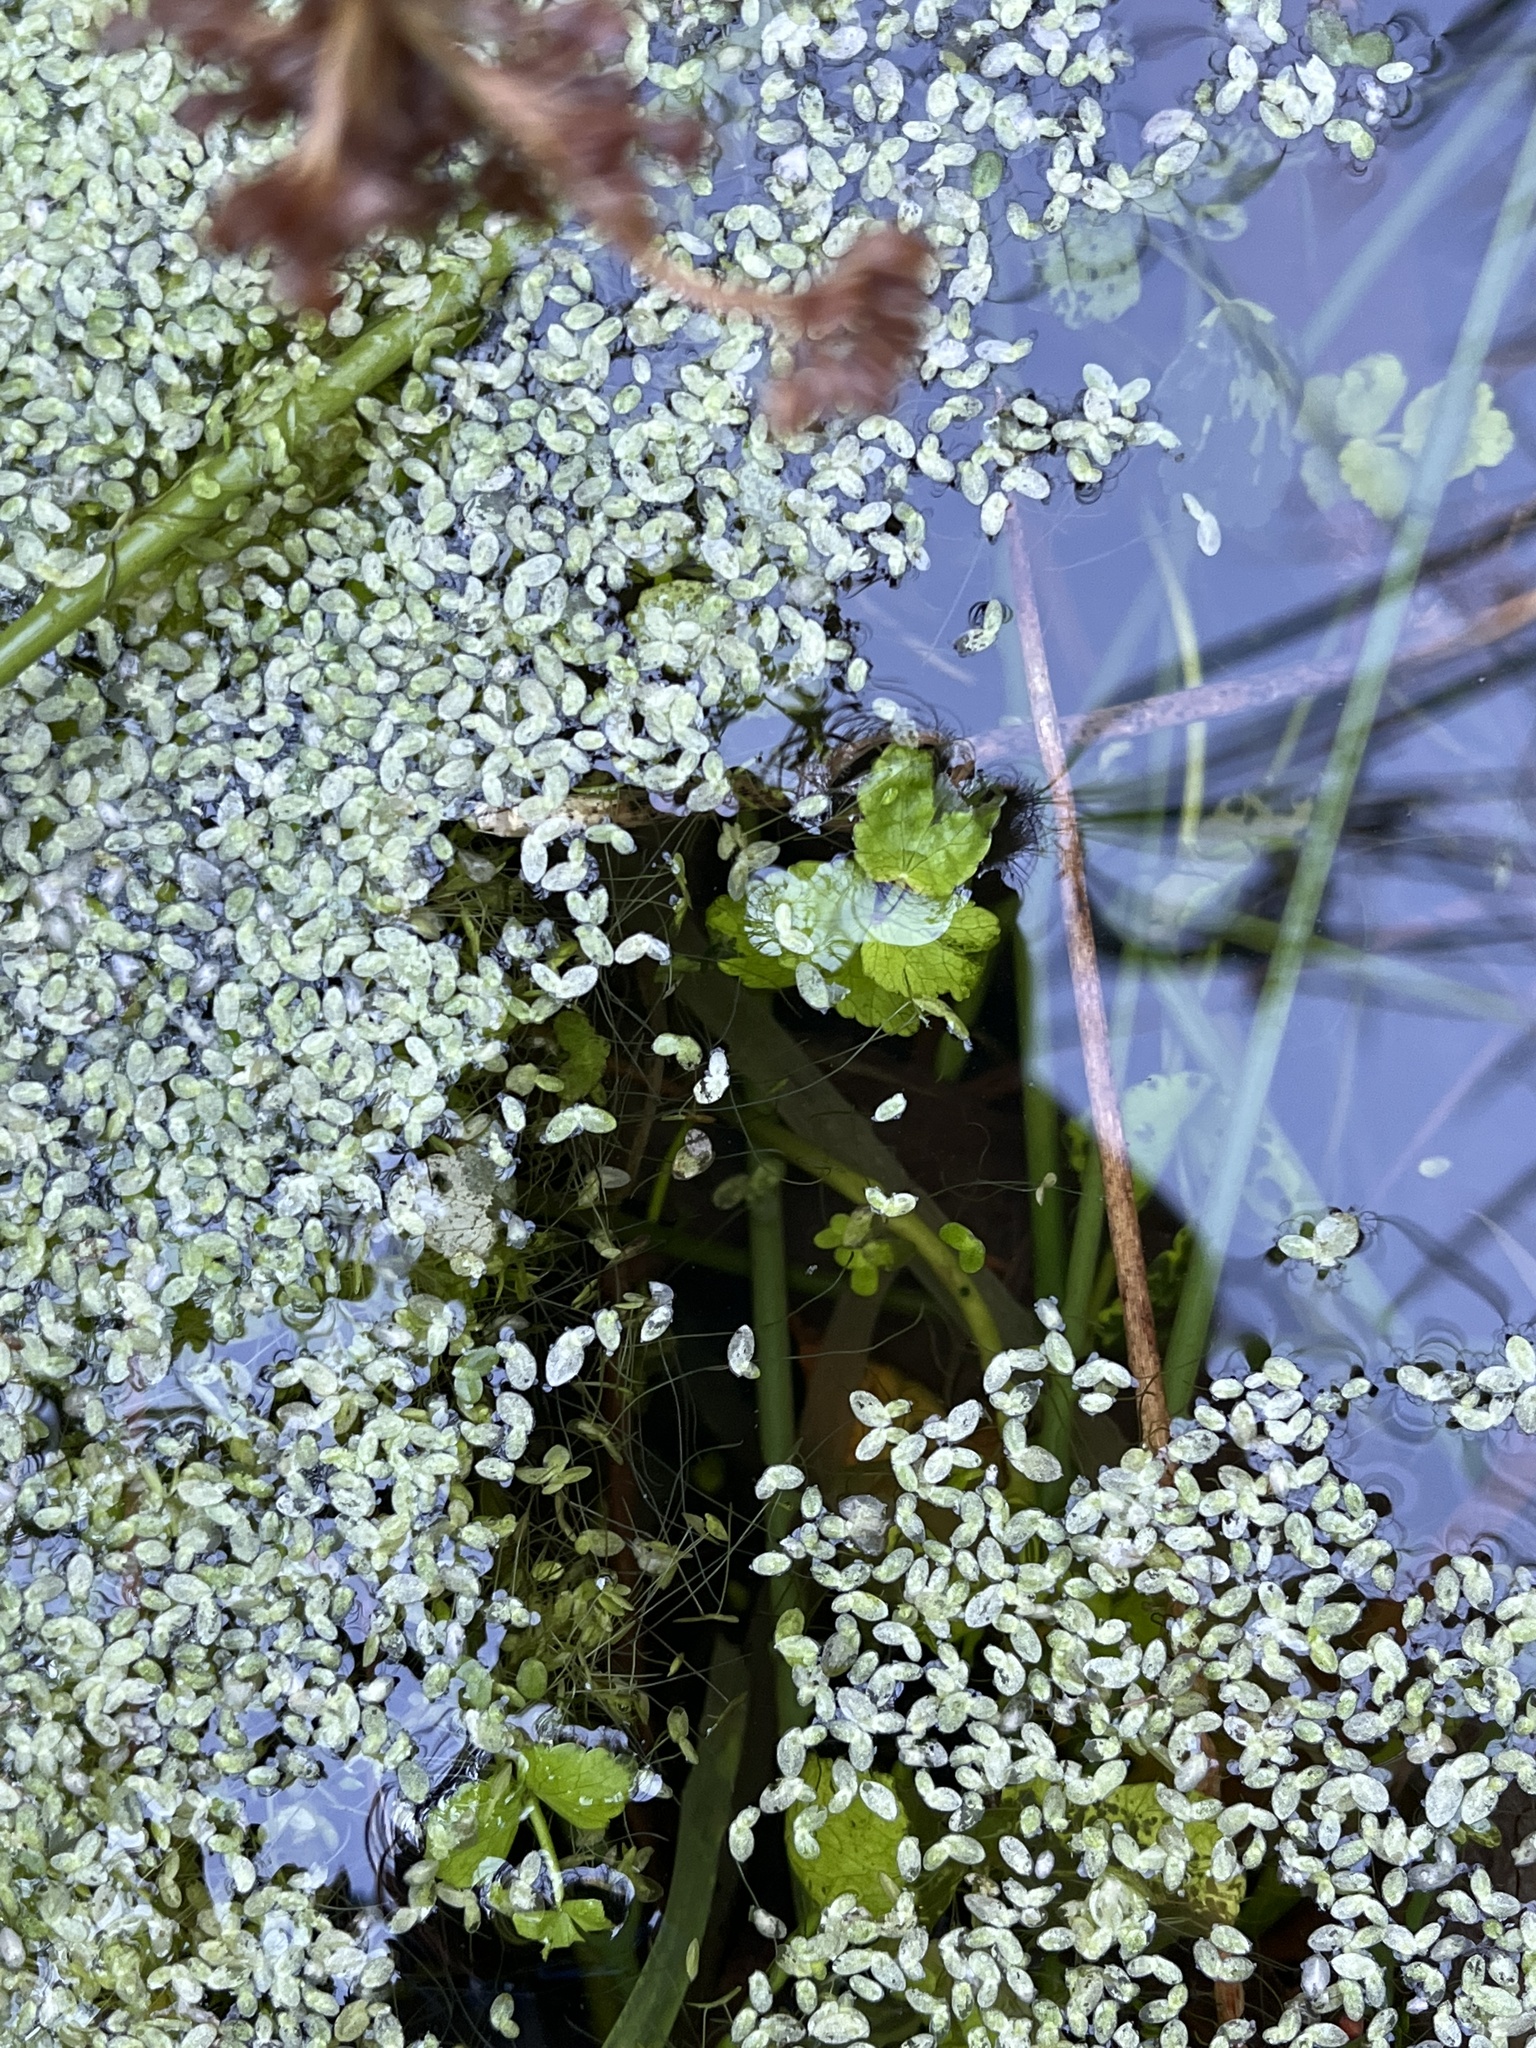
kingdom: Plantae
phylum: Tracheophyta
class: Magnoliopsida
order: Apiales
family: Apiaceae
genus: Helosciadium
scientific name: Helosciadium nodiflorum
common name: Fool's-watercress
